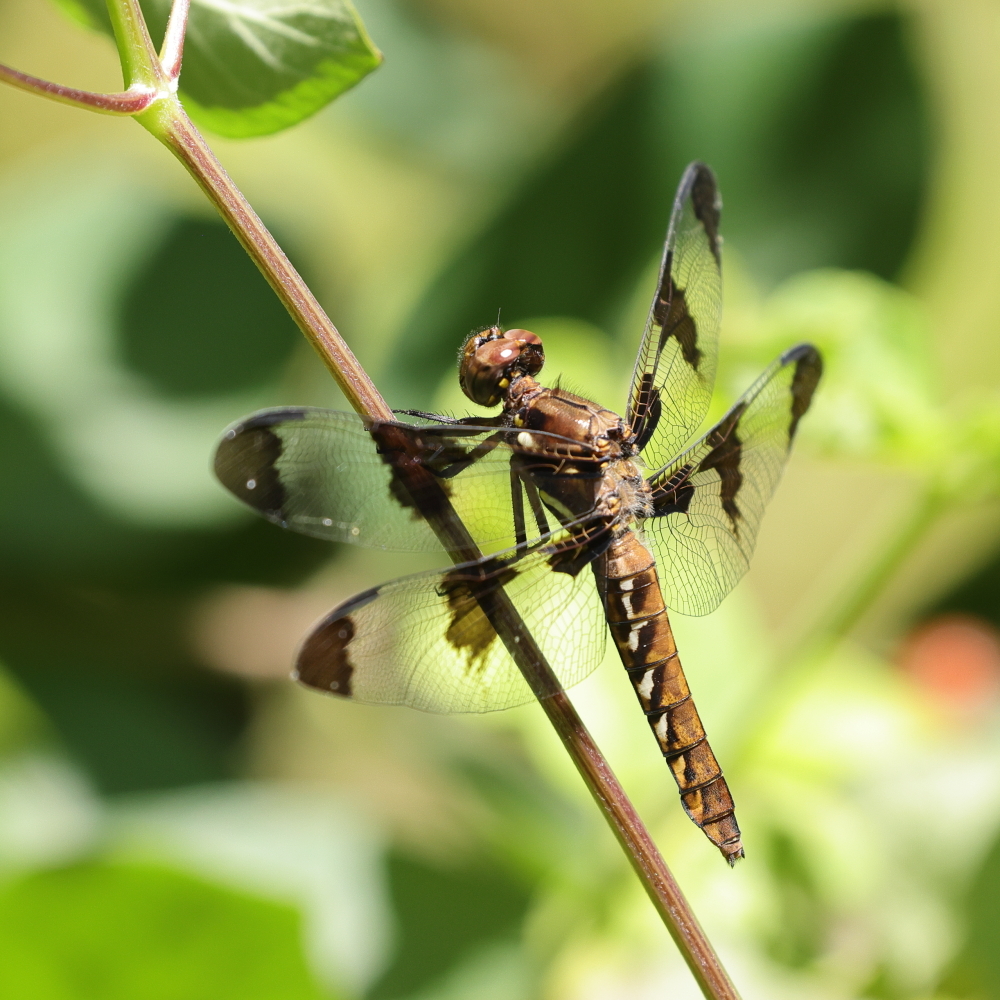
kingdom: Animalia
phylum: Arthropoda
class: Insecta
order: Odonata
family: Libellulidae
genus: Plathemis
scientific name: Plathemis lydia
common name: Common whitetail
